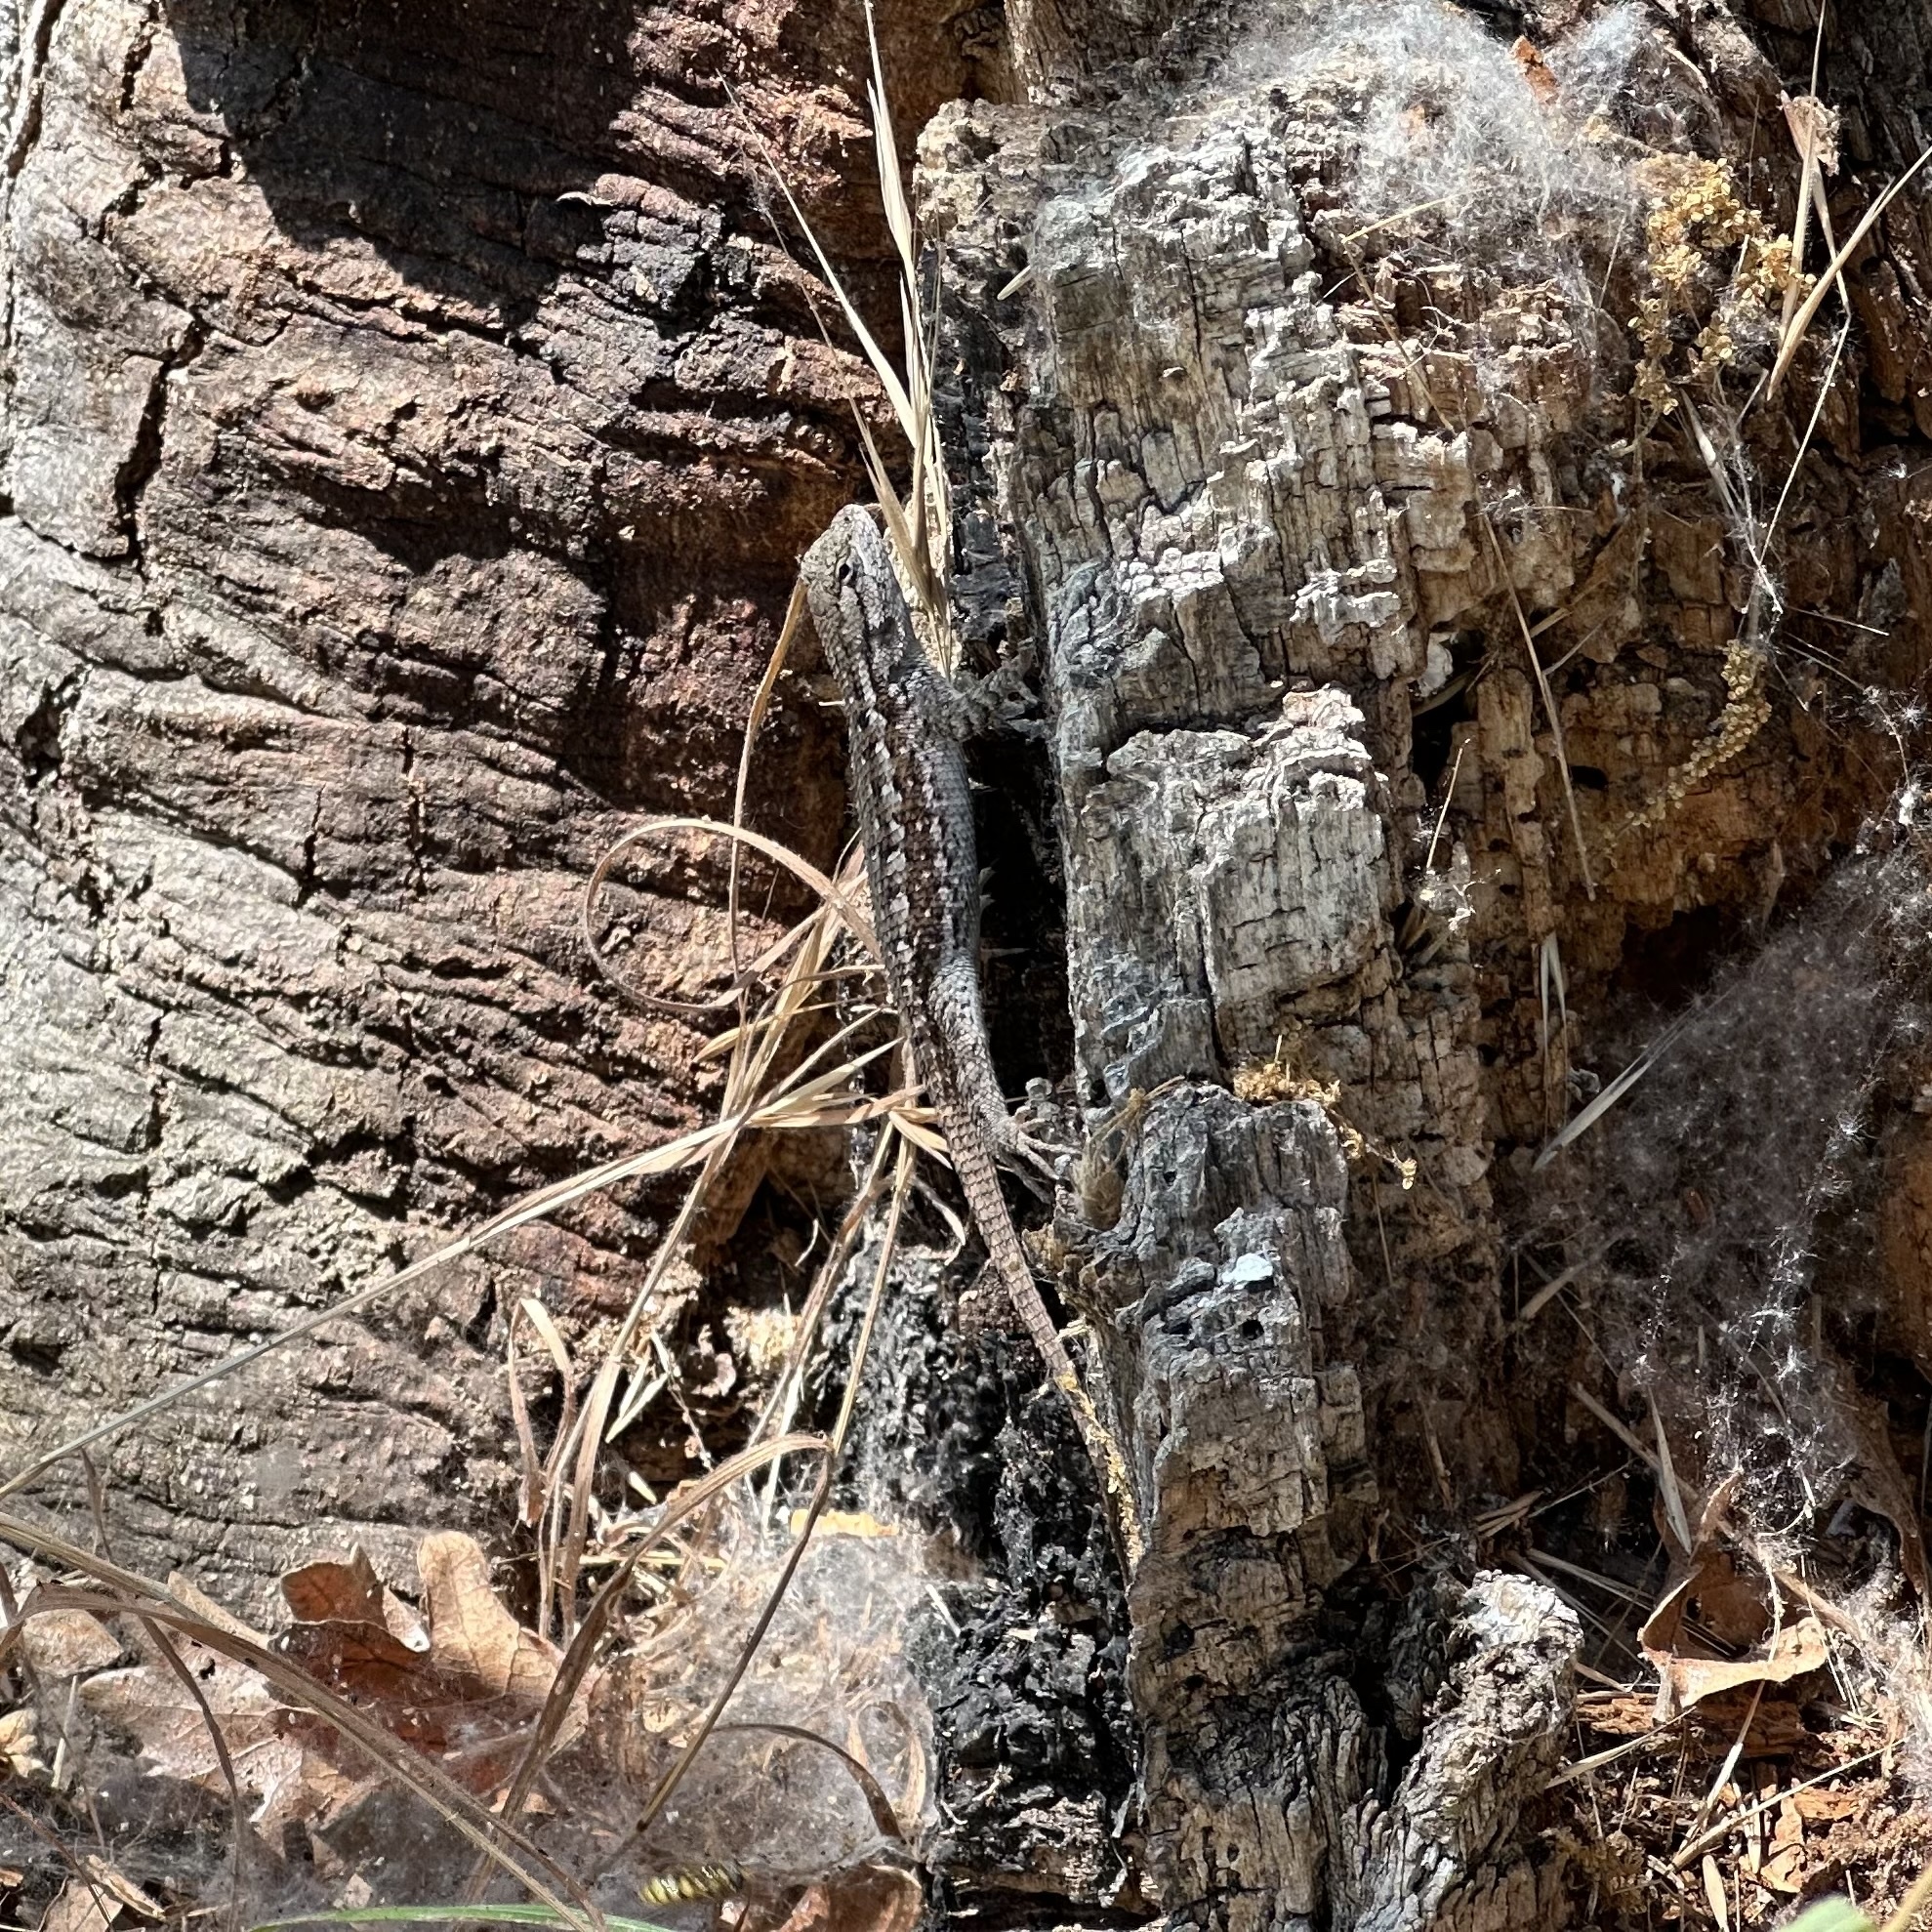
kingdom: Animalia
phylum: Chordata
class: Squamata
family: Phrynosomatidae
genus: Sceloporus
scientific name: Sceloporus occidentalis
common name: Western fence lizard
